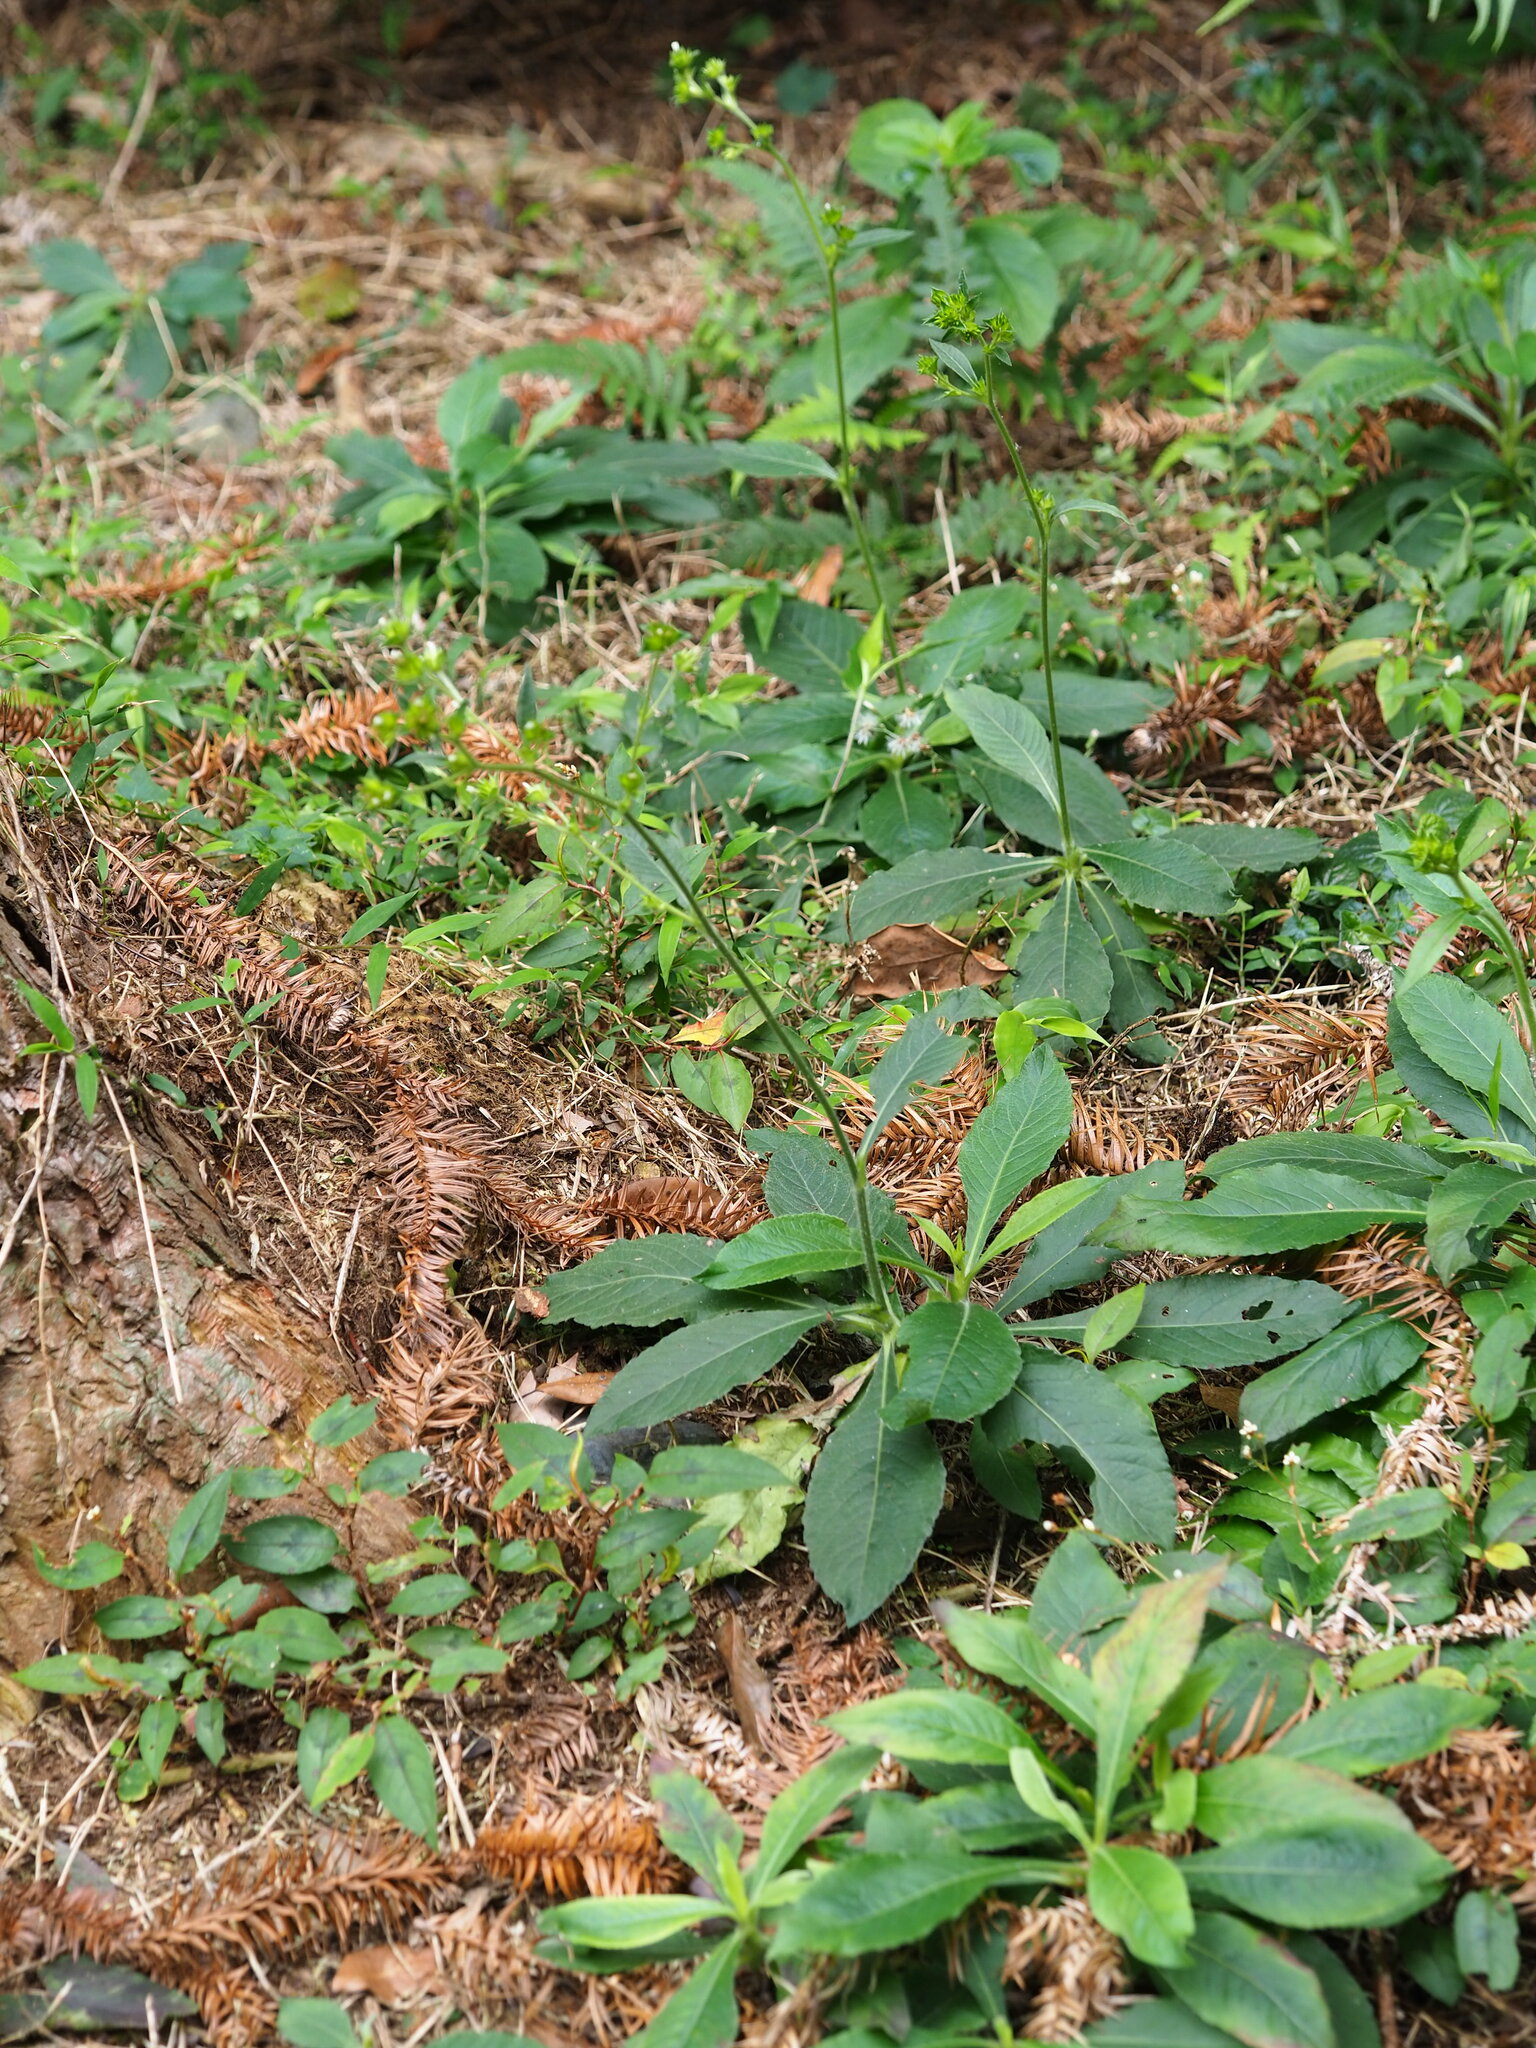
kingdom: Plantae
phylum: Tracheophyta
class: Magnoliopsida
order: Asterales
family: Asteraceae
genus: Elephantopus
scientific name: Elephantopus mollis
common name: Soft elephantsfoot
